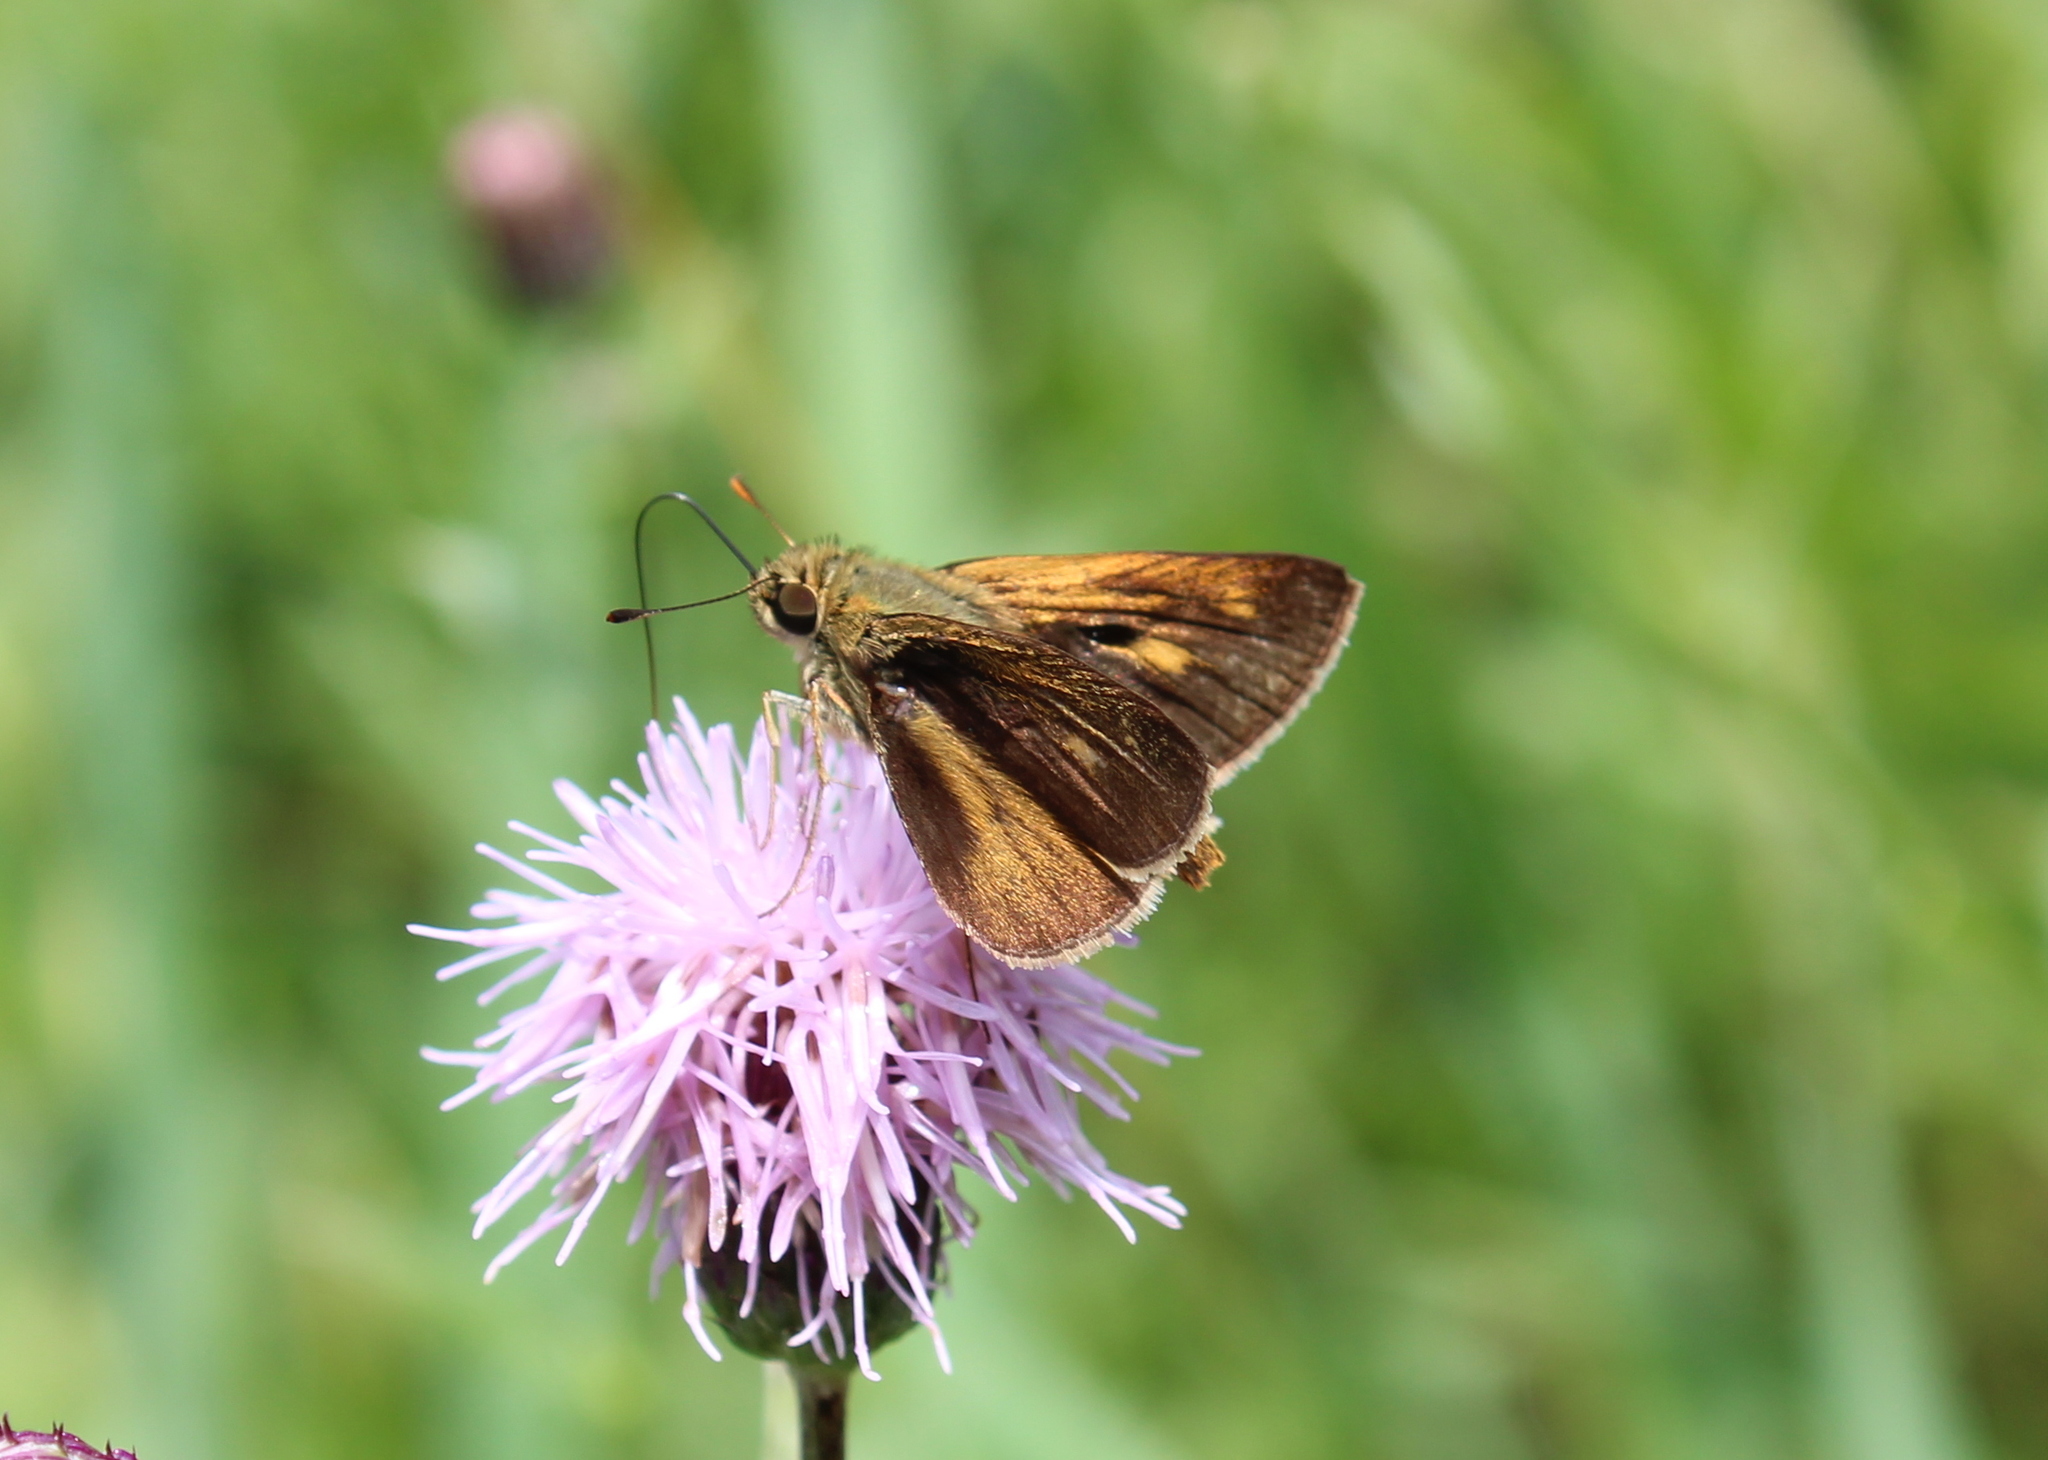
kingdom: Animalia
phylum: Arthropoda
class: Insecta
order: Lepidoptera
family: Hesperiidae
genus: Polites
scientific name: Polites egeremet
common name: Northern broken-dash
